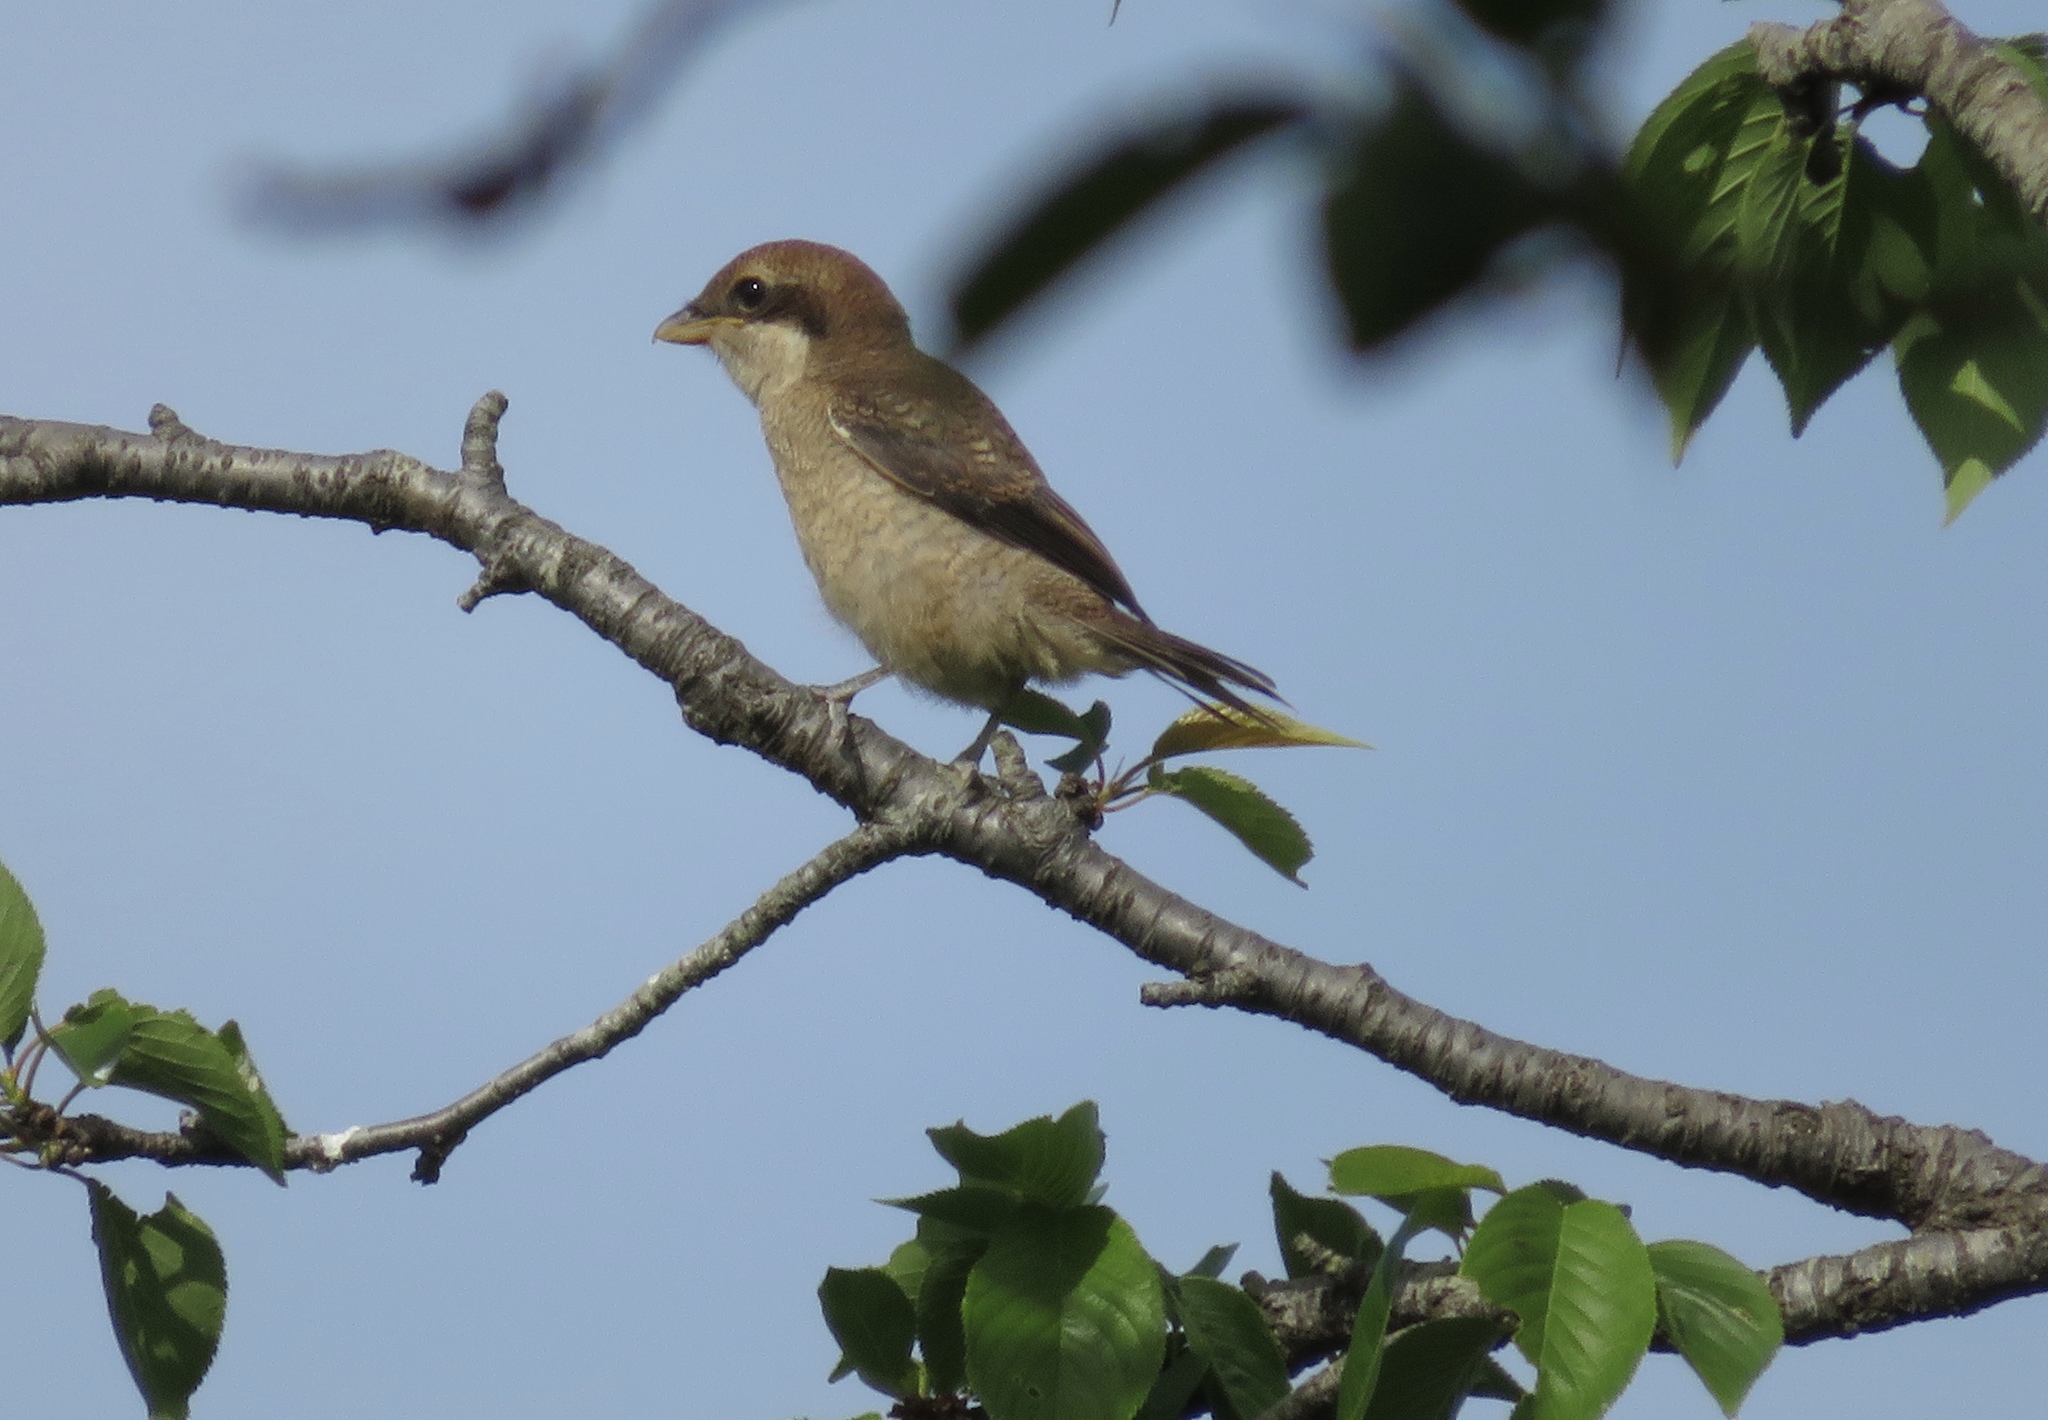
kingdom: Animalia
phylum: Chordata
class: Aves
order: Passeriformes
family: Laniidae
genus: Lanius
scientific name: Lanius bucephalus
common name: Bull-headed shrike
